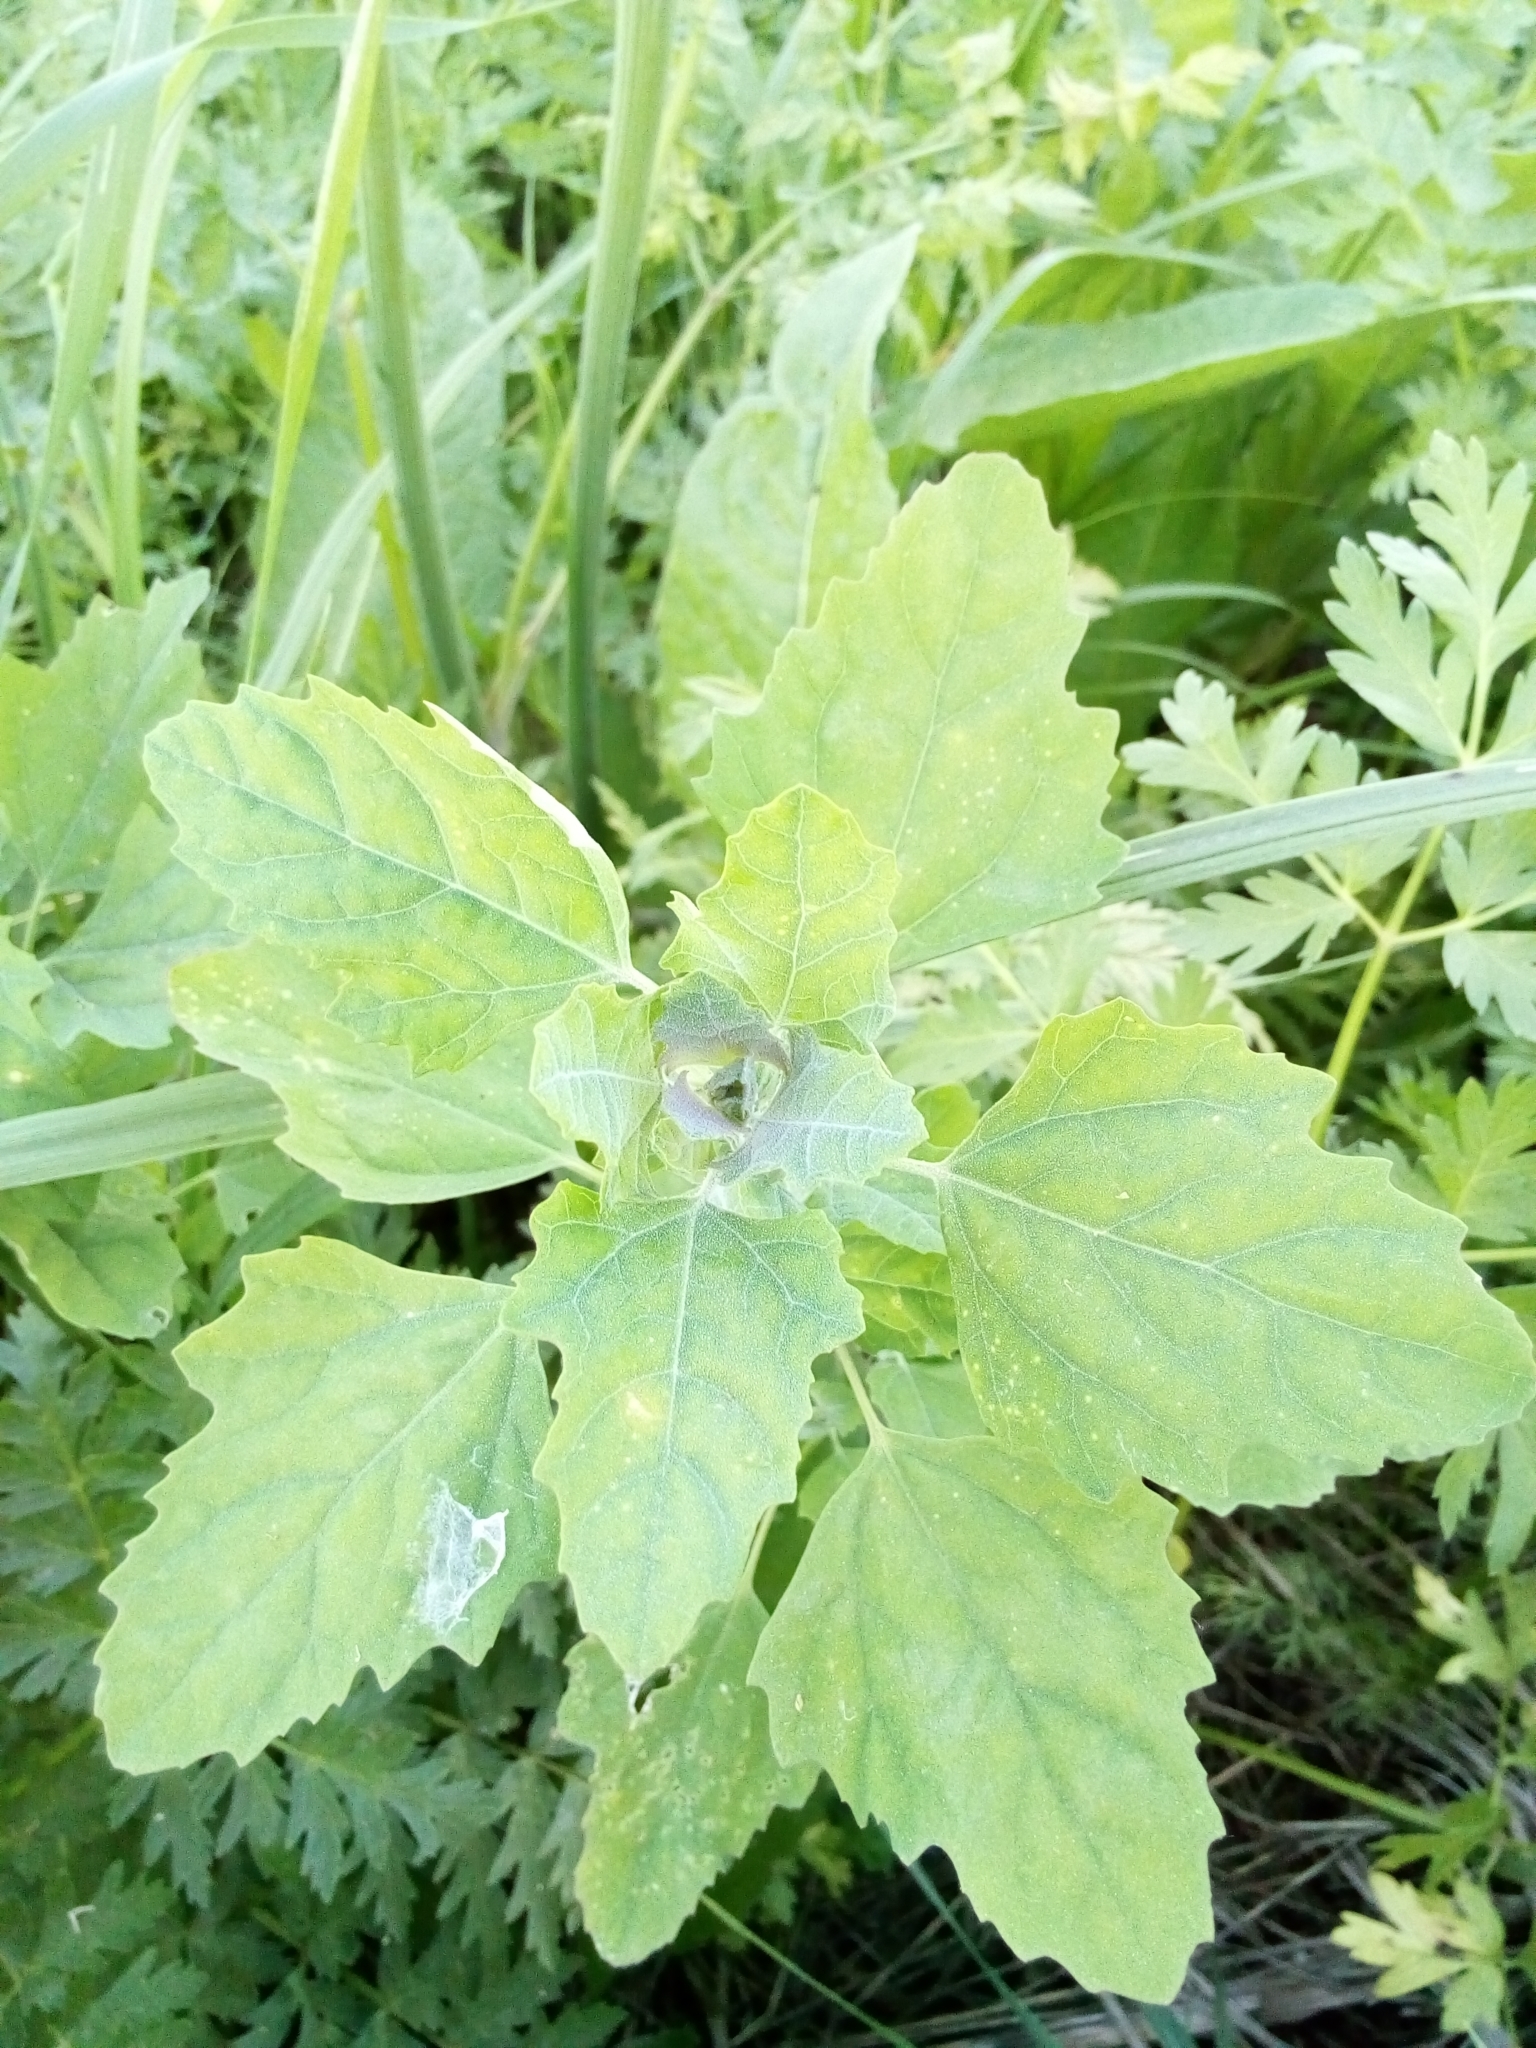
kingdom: Plantae
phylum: Tracheophyta
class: Magnoliopsida
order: Caryophyllales
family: Amaranthaceae
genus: Chenopodium
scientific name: Chenopodium album
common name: Fat-hen
